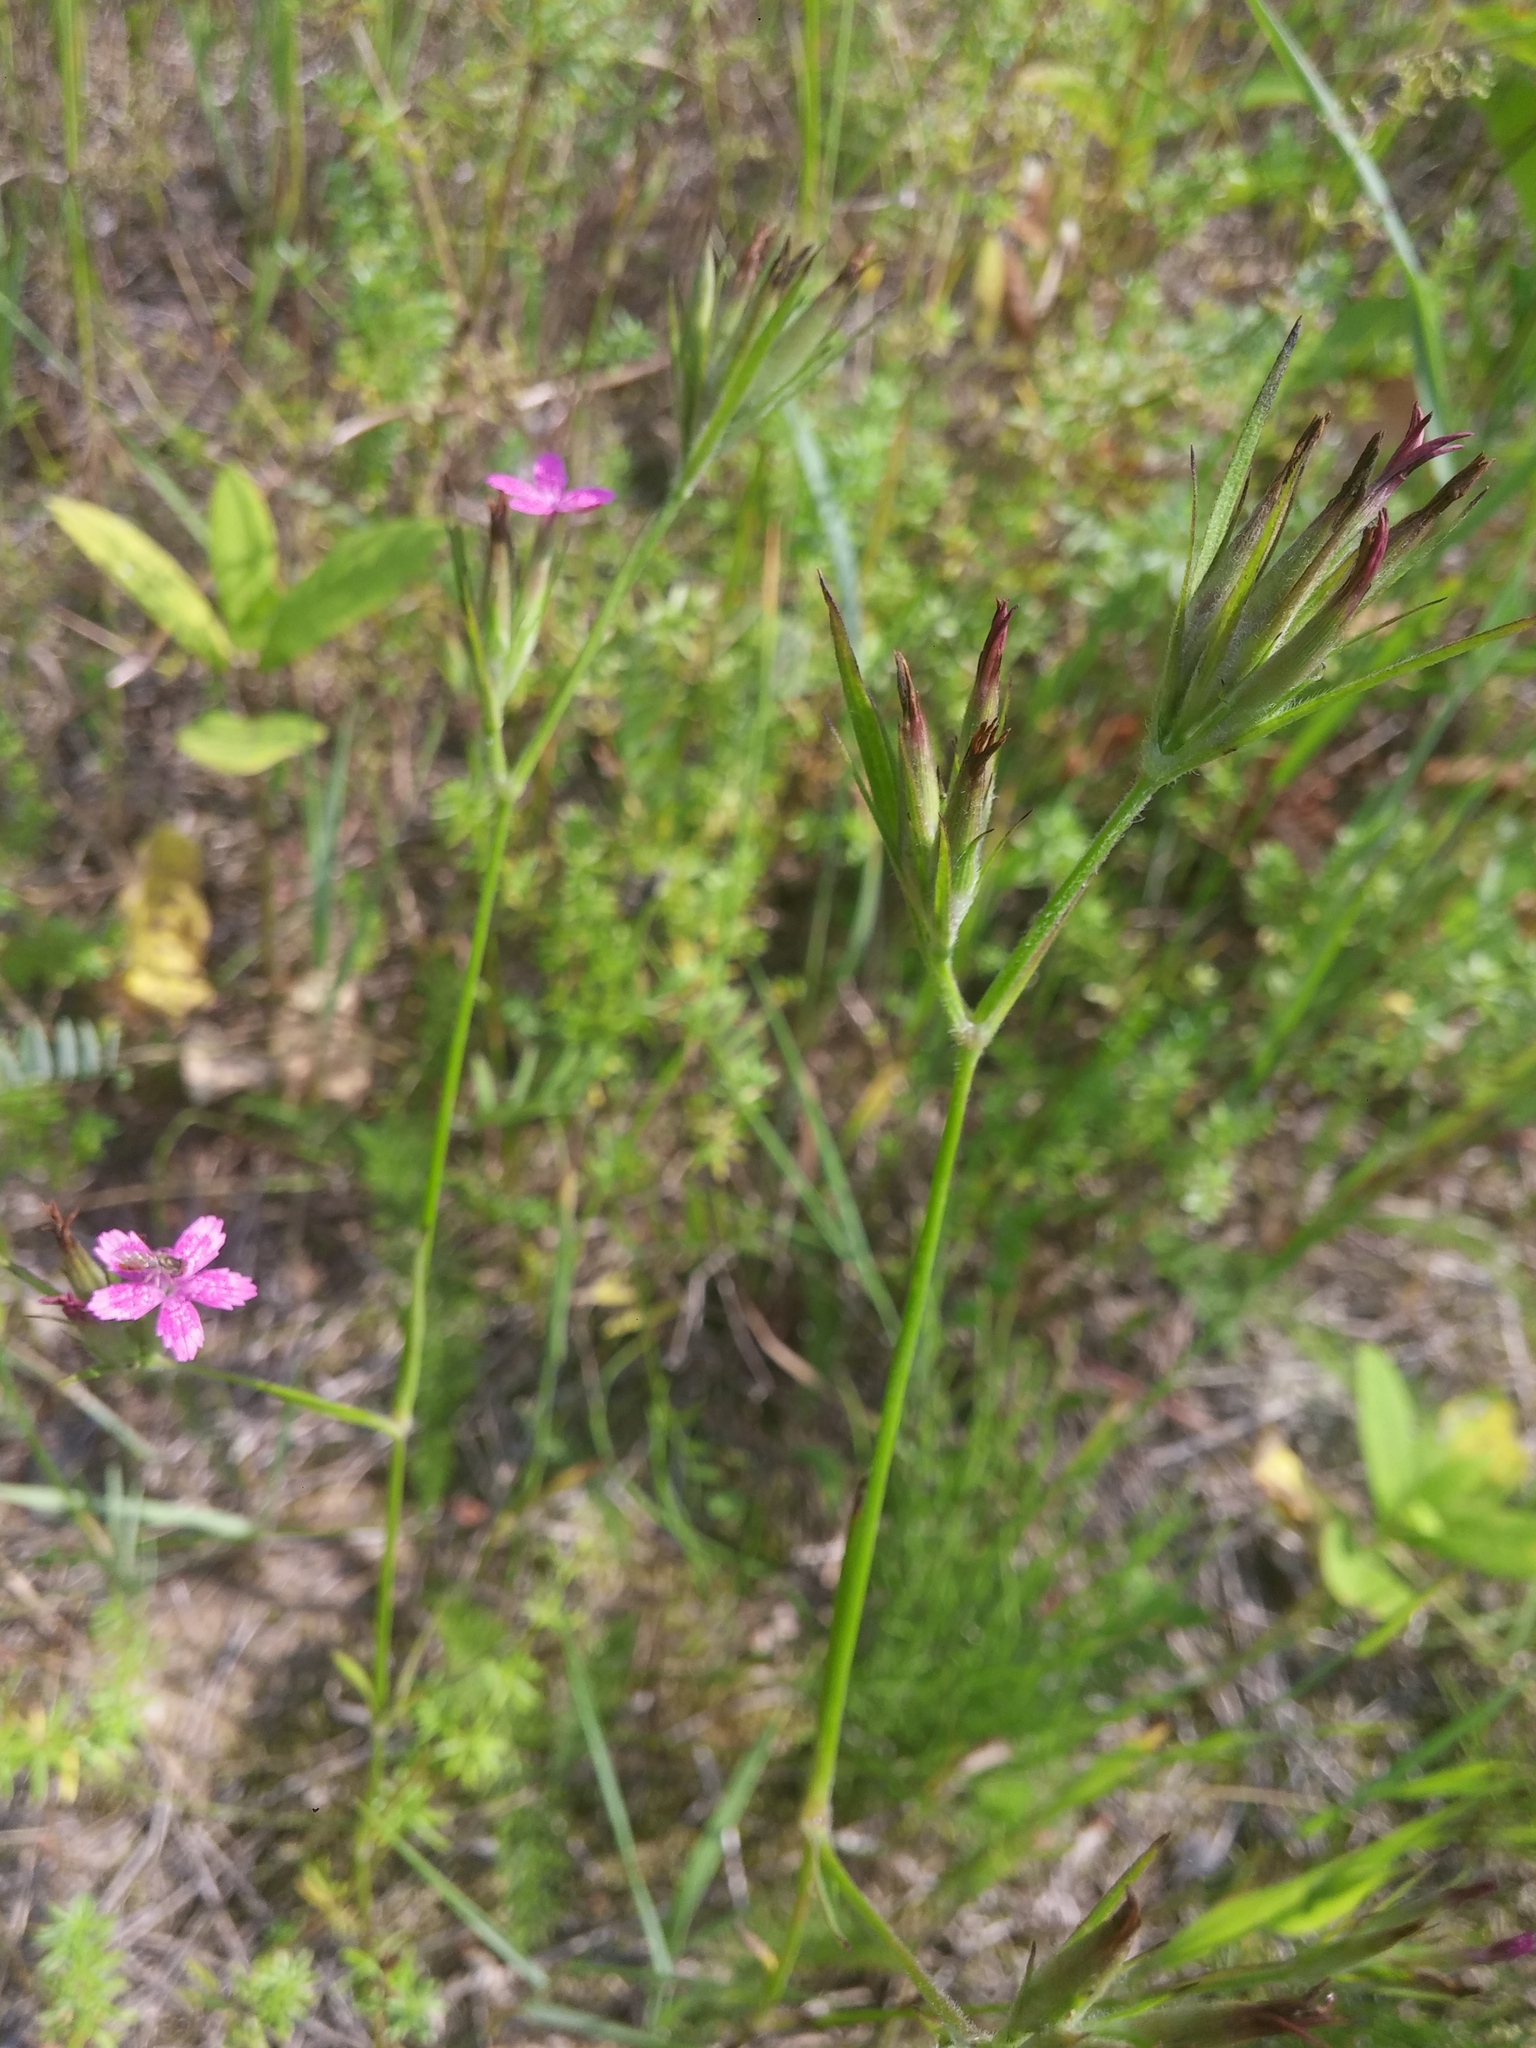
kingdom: Plantae
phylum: Tracheophyta
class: Magnoliopsida
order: Caryophyllales
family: Caryophyllaceae
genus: Dianthus
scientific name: Dianthus armeria
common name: Deptford pink
